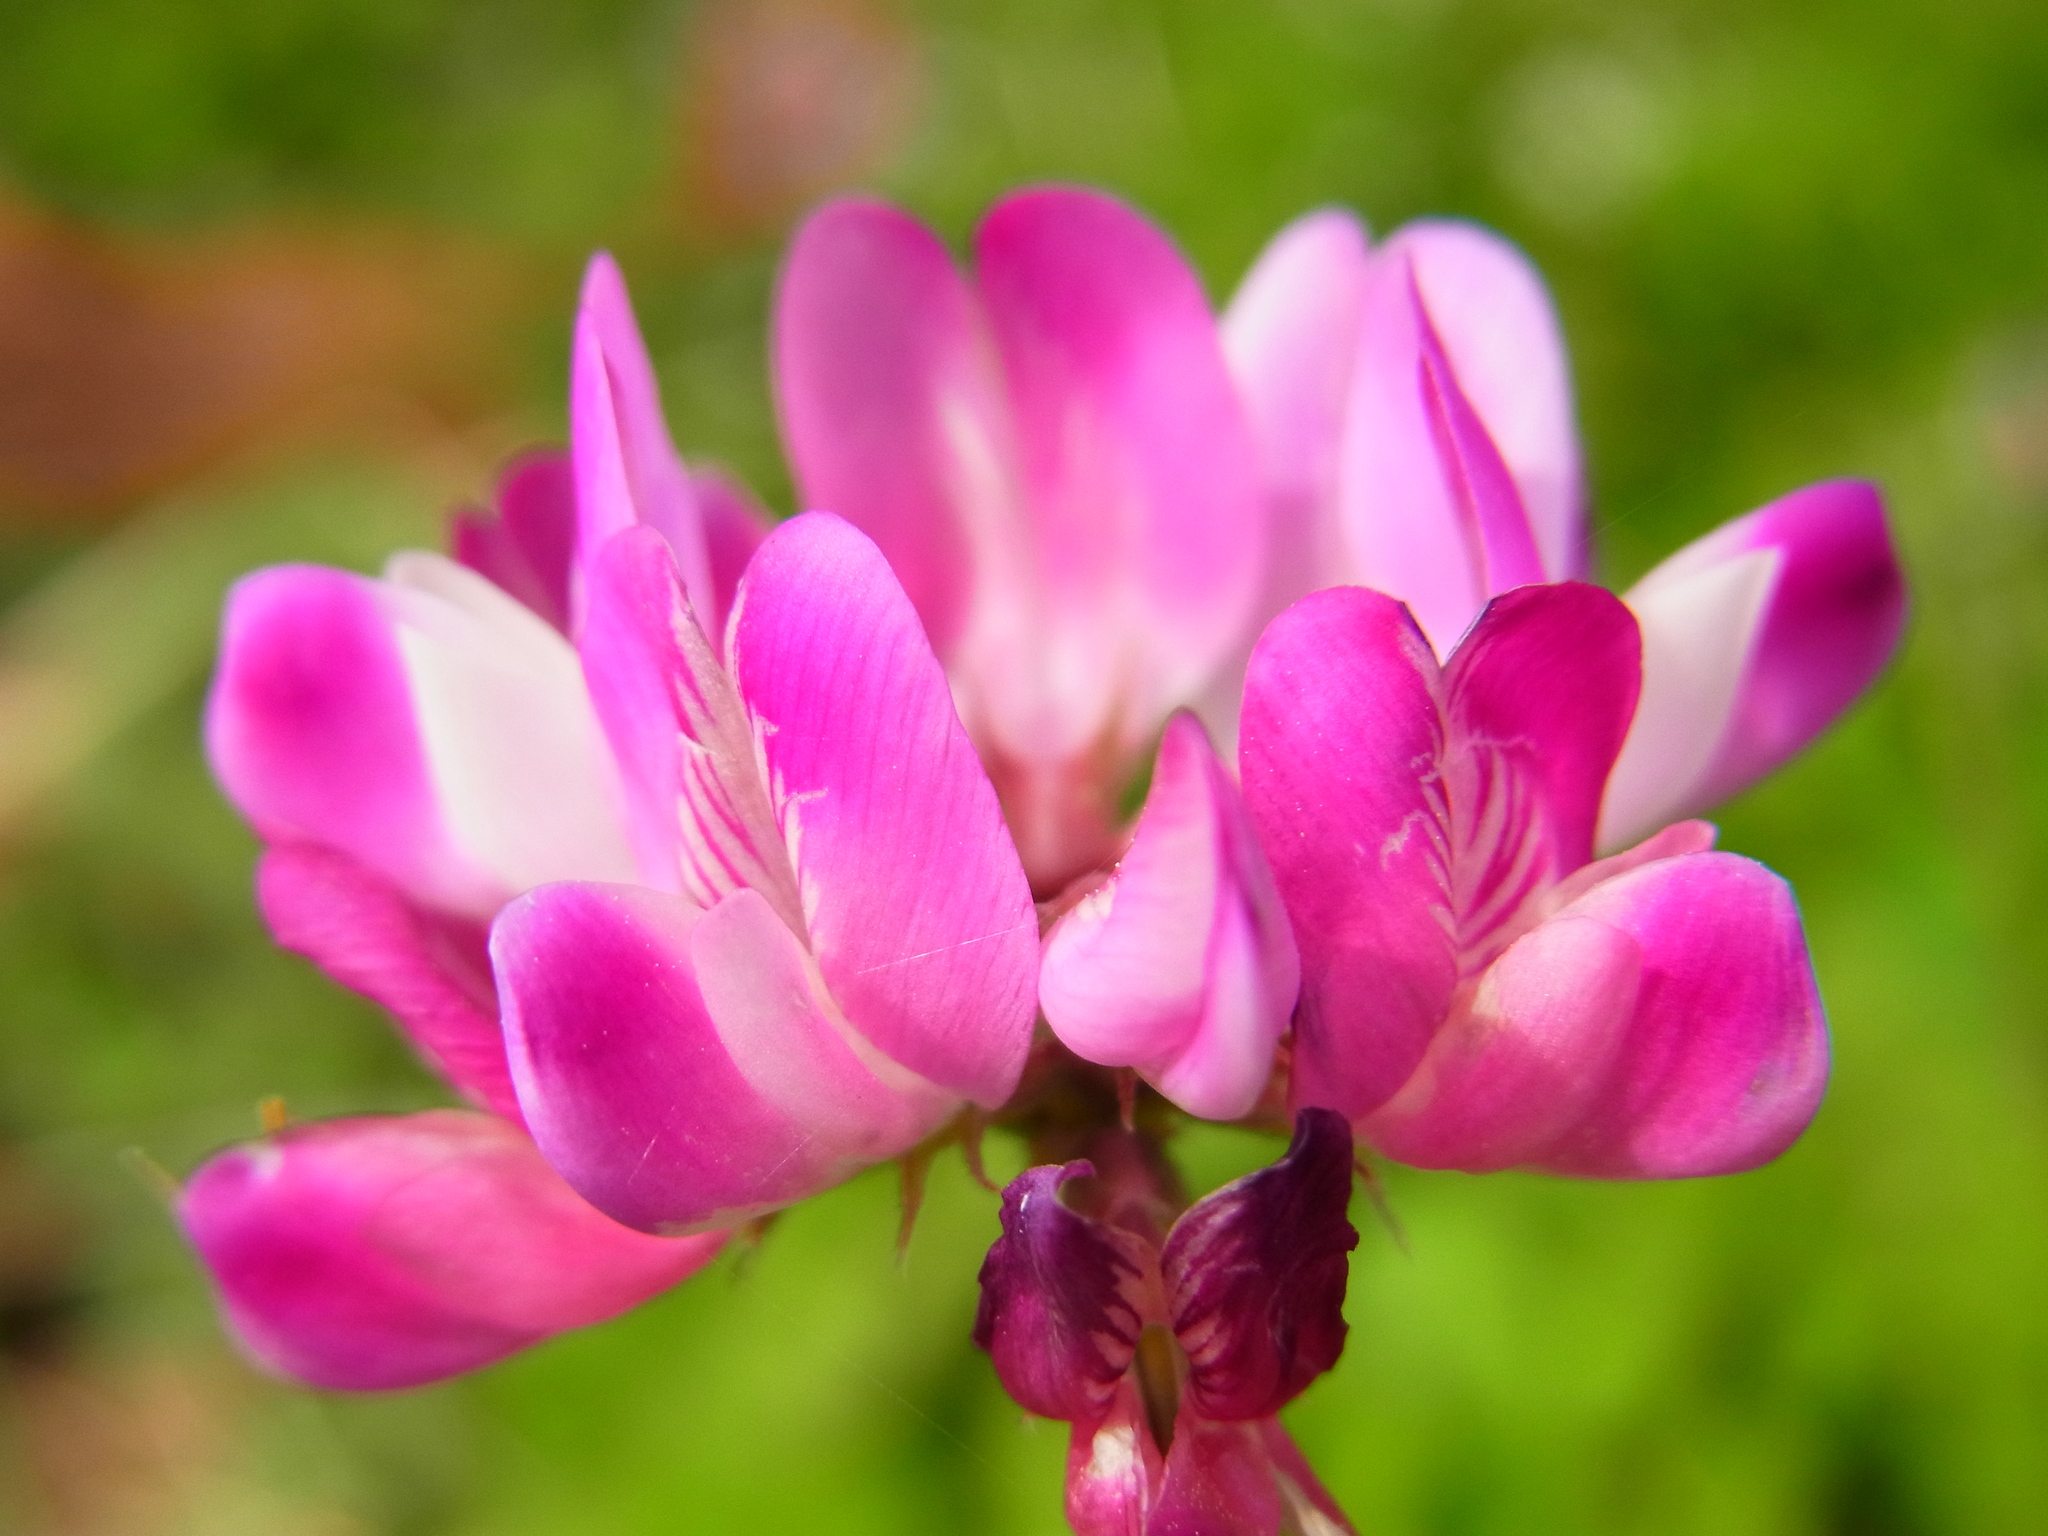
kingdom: Plantae
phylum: Tracheophyta
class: Magnoliopsida
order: Fabales
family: Fabaceae
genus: Astragalus
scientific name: Astragalus sinicus
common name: Chinese milk-vetch
